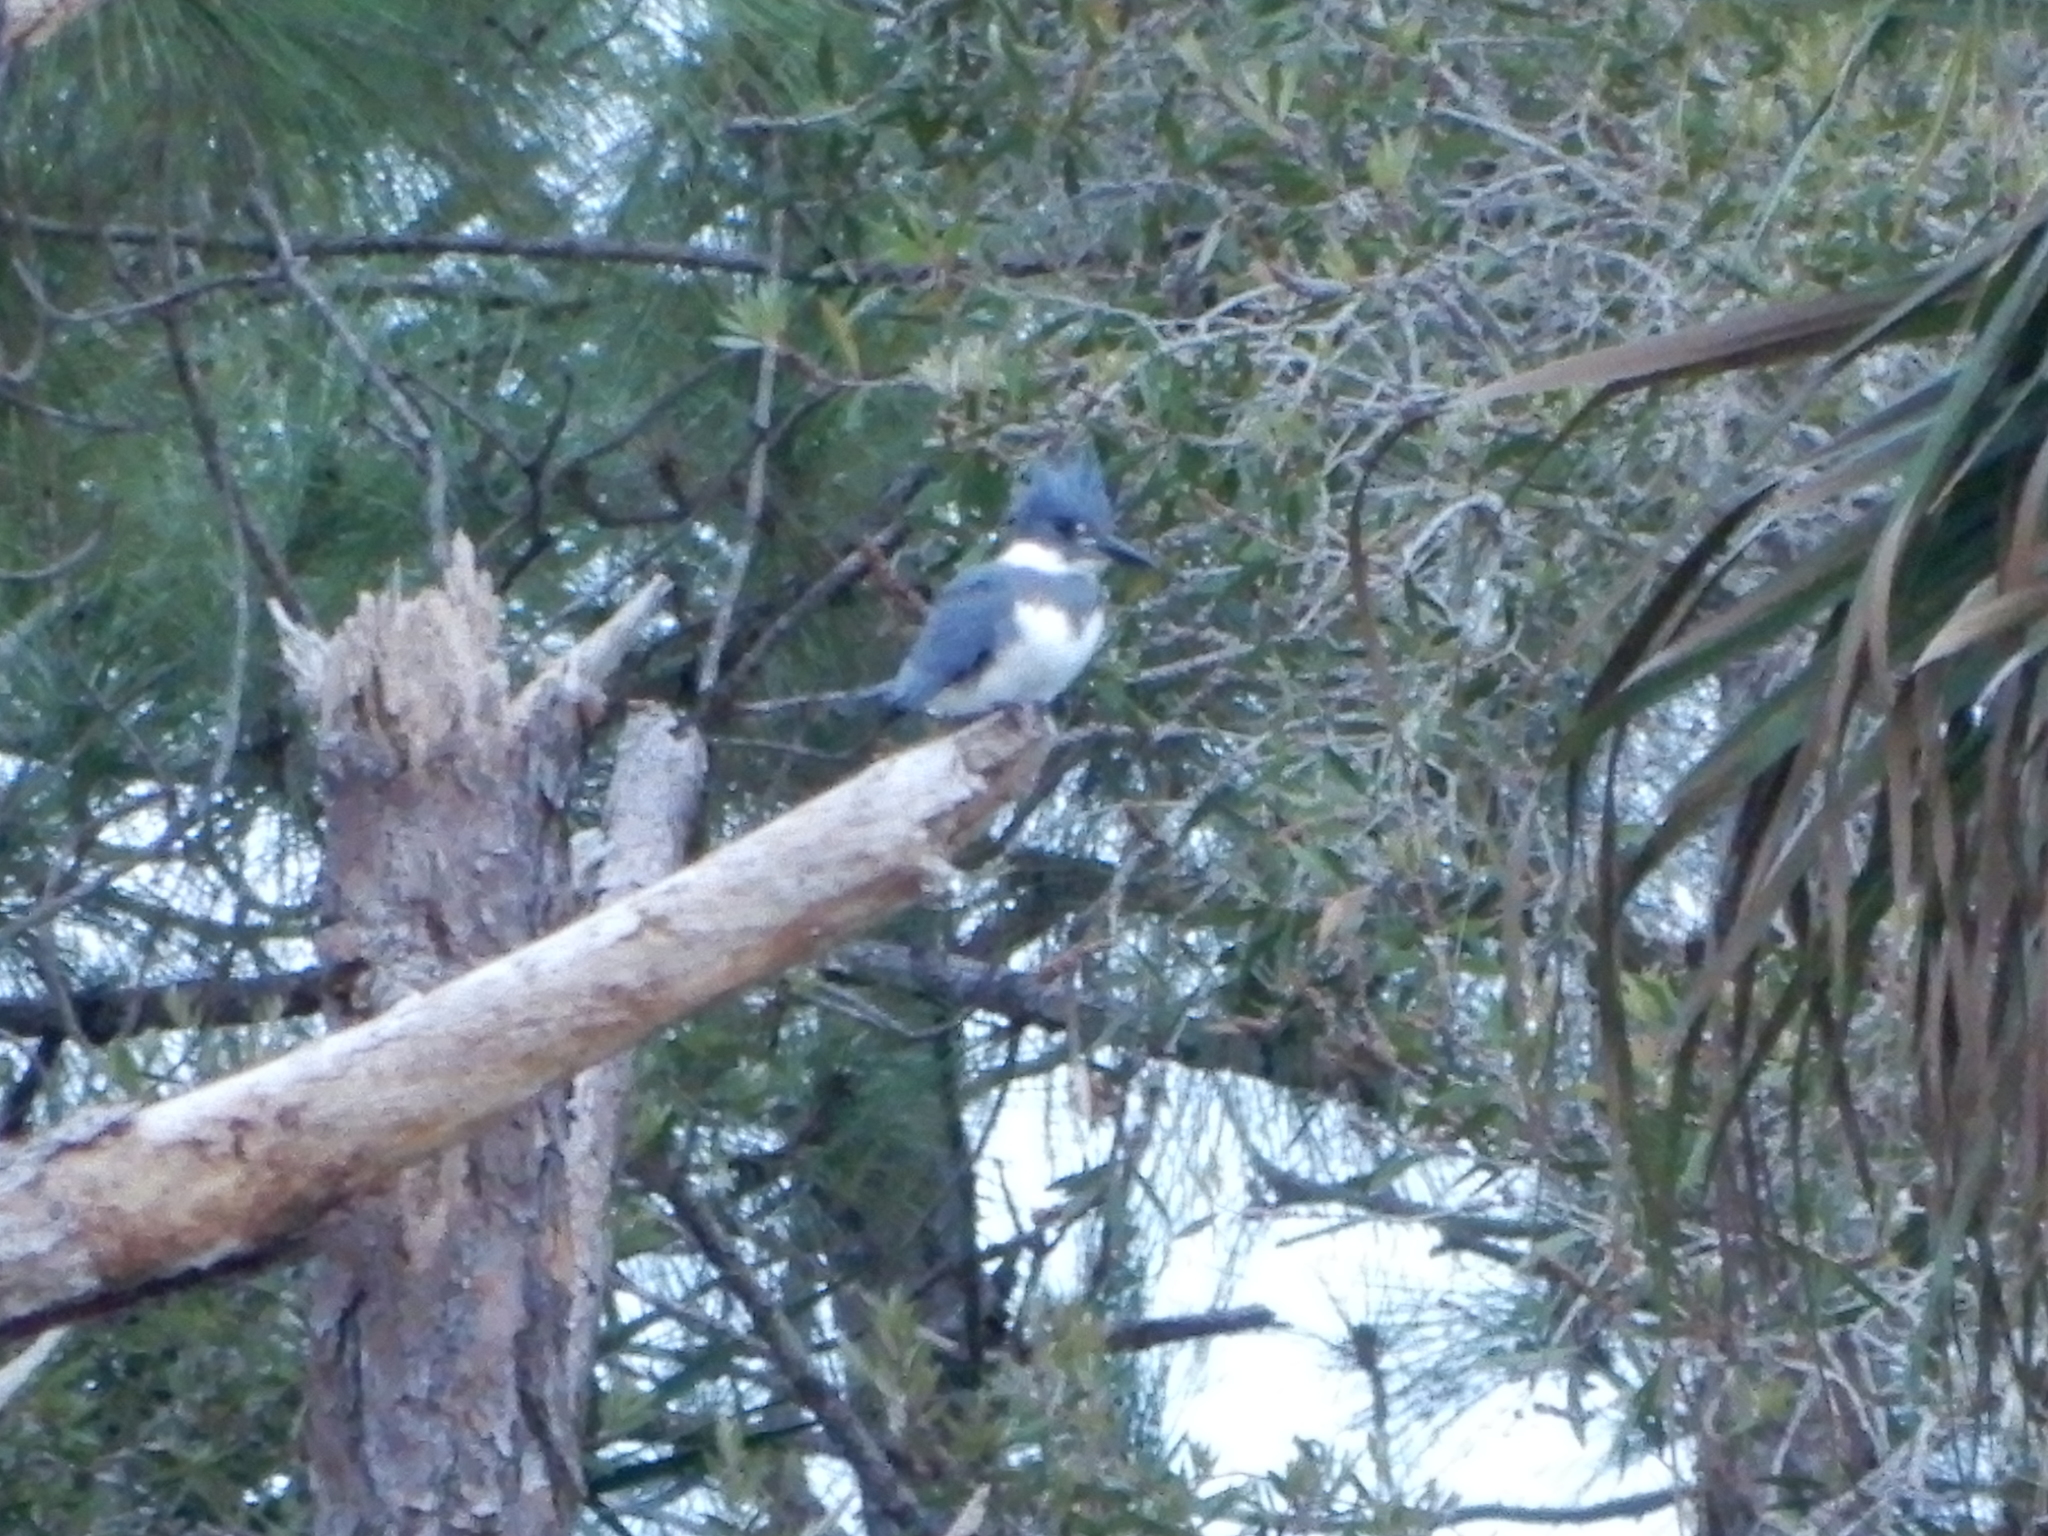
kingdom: Animalia
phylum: Chordata
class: Aves
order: Coraciiformes
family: Alcedinidae
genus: Megaceryle
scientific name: Megaceryle alcyon
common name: Belted kingfisher
